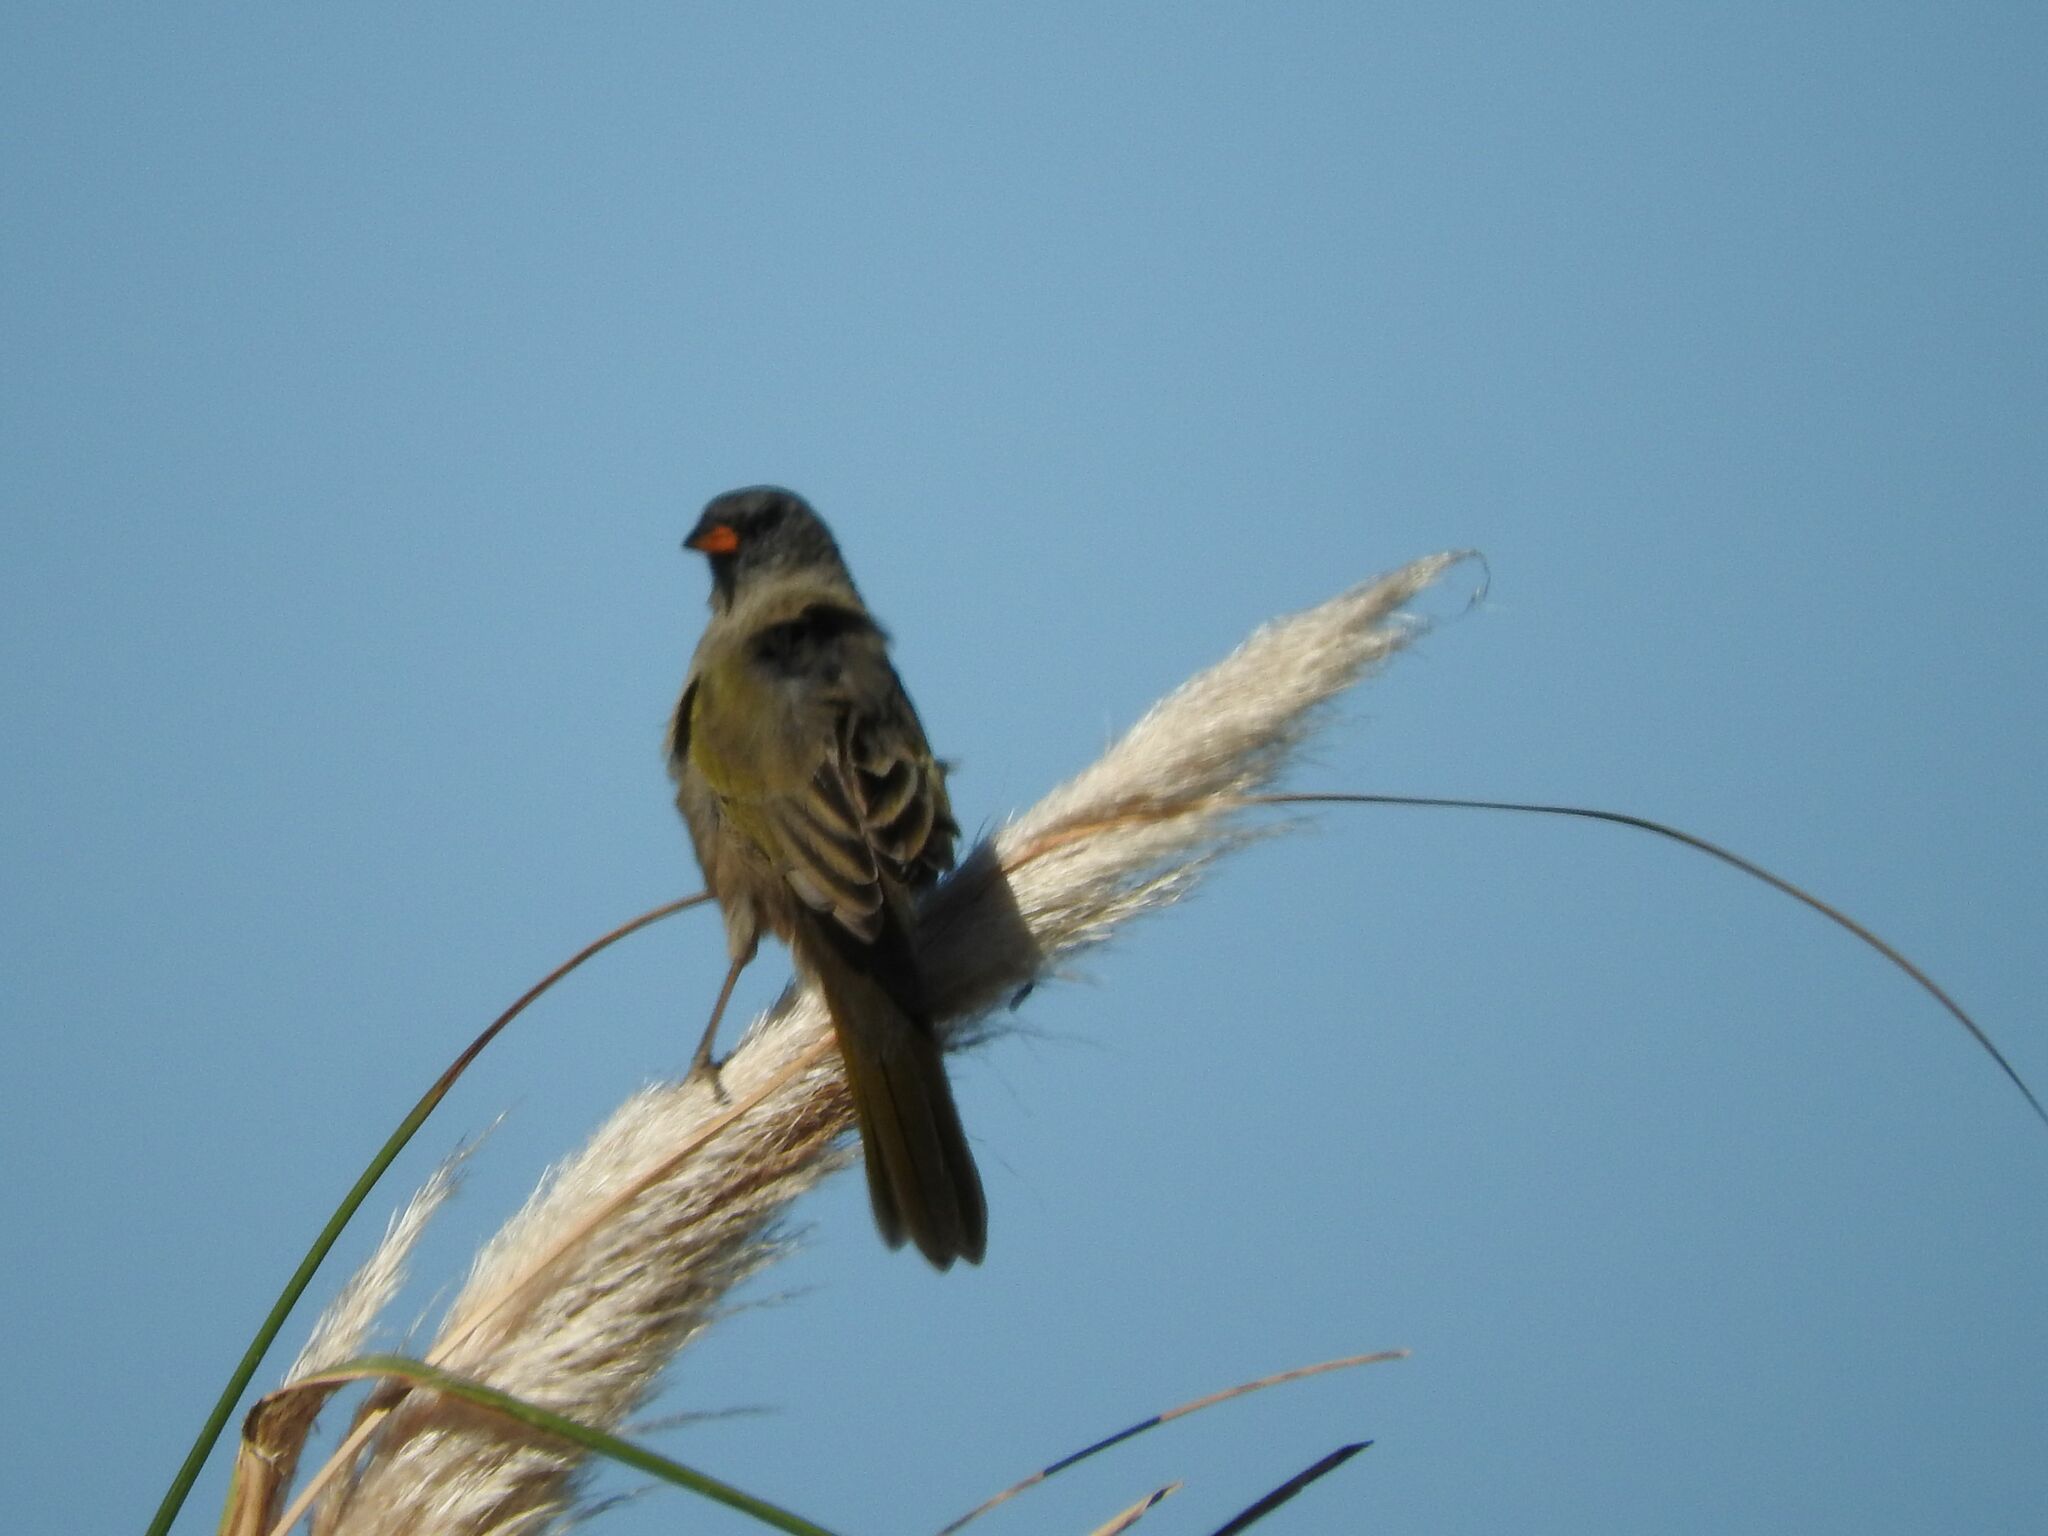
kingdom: Animalia
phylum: Chordata
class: Aves
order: Passeriformes
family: Thraupidae
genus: Embernagra
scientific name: Embernagra platensis
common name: Pampa finch
